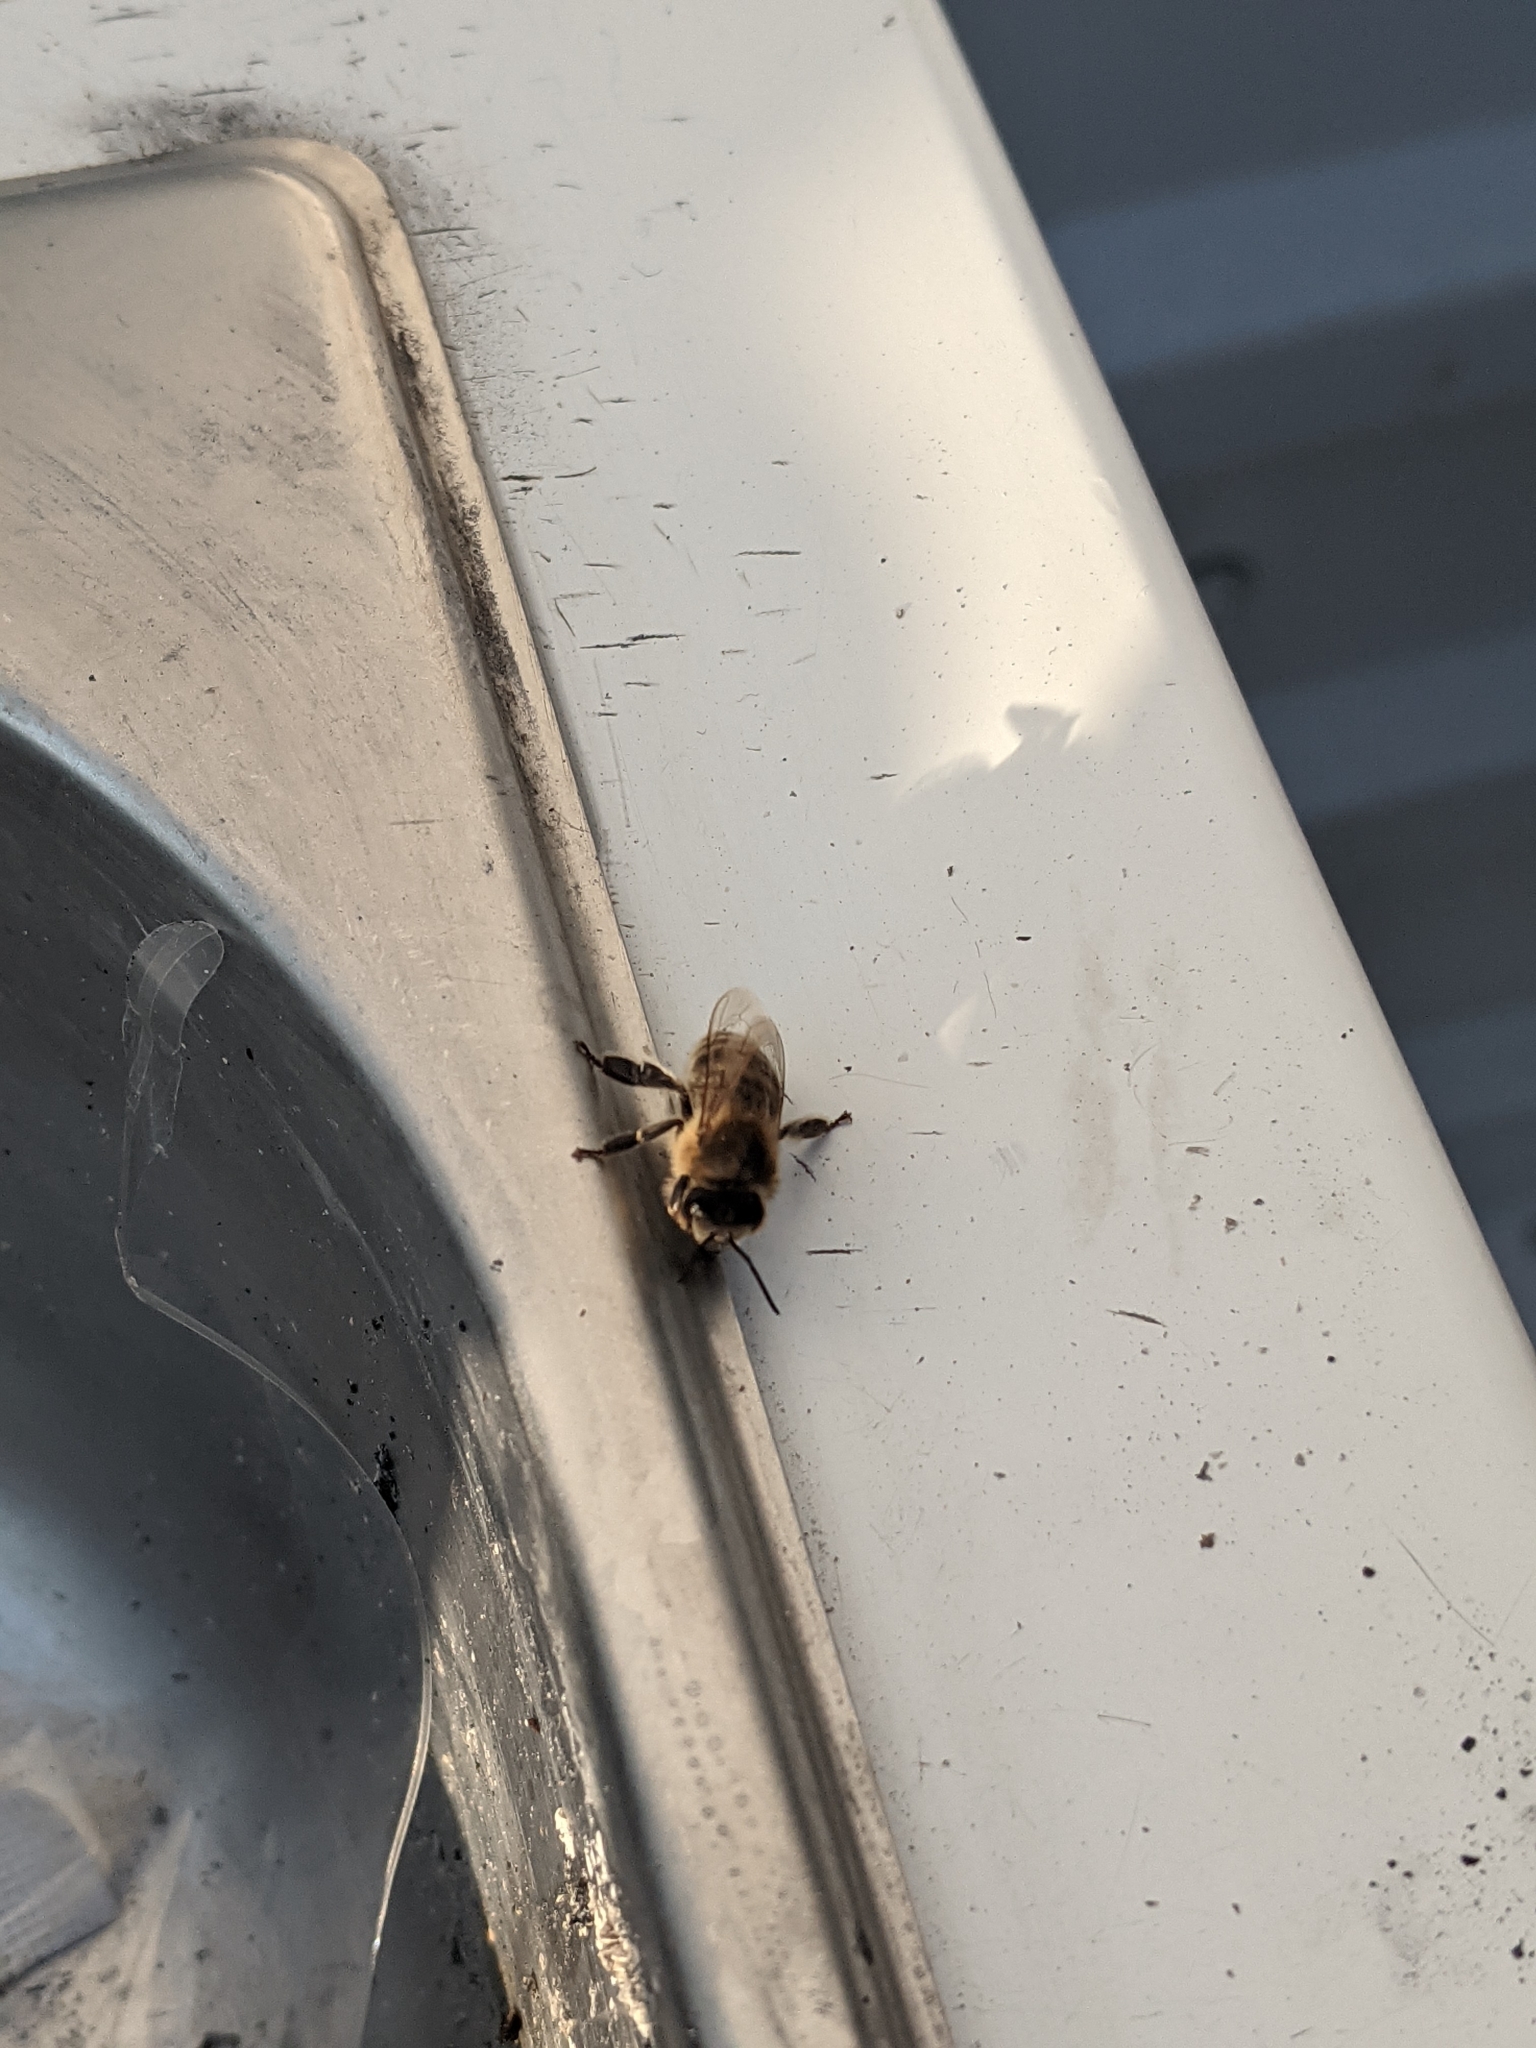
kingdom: Animalia
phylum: Arthropoda
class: Insecta
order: Hymenoptera
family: Apidae
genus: Apis
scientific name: Apis mellifera
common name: Honey bee
